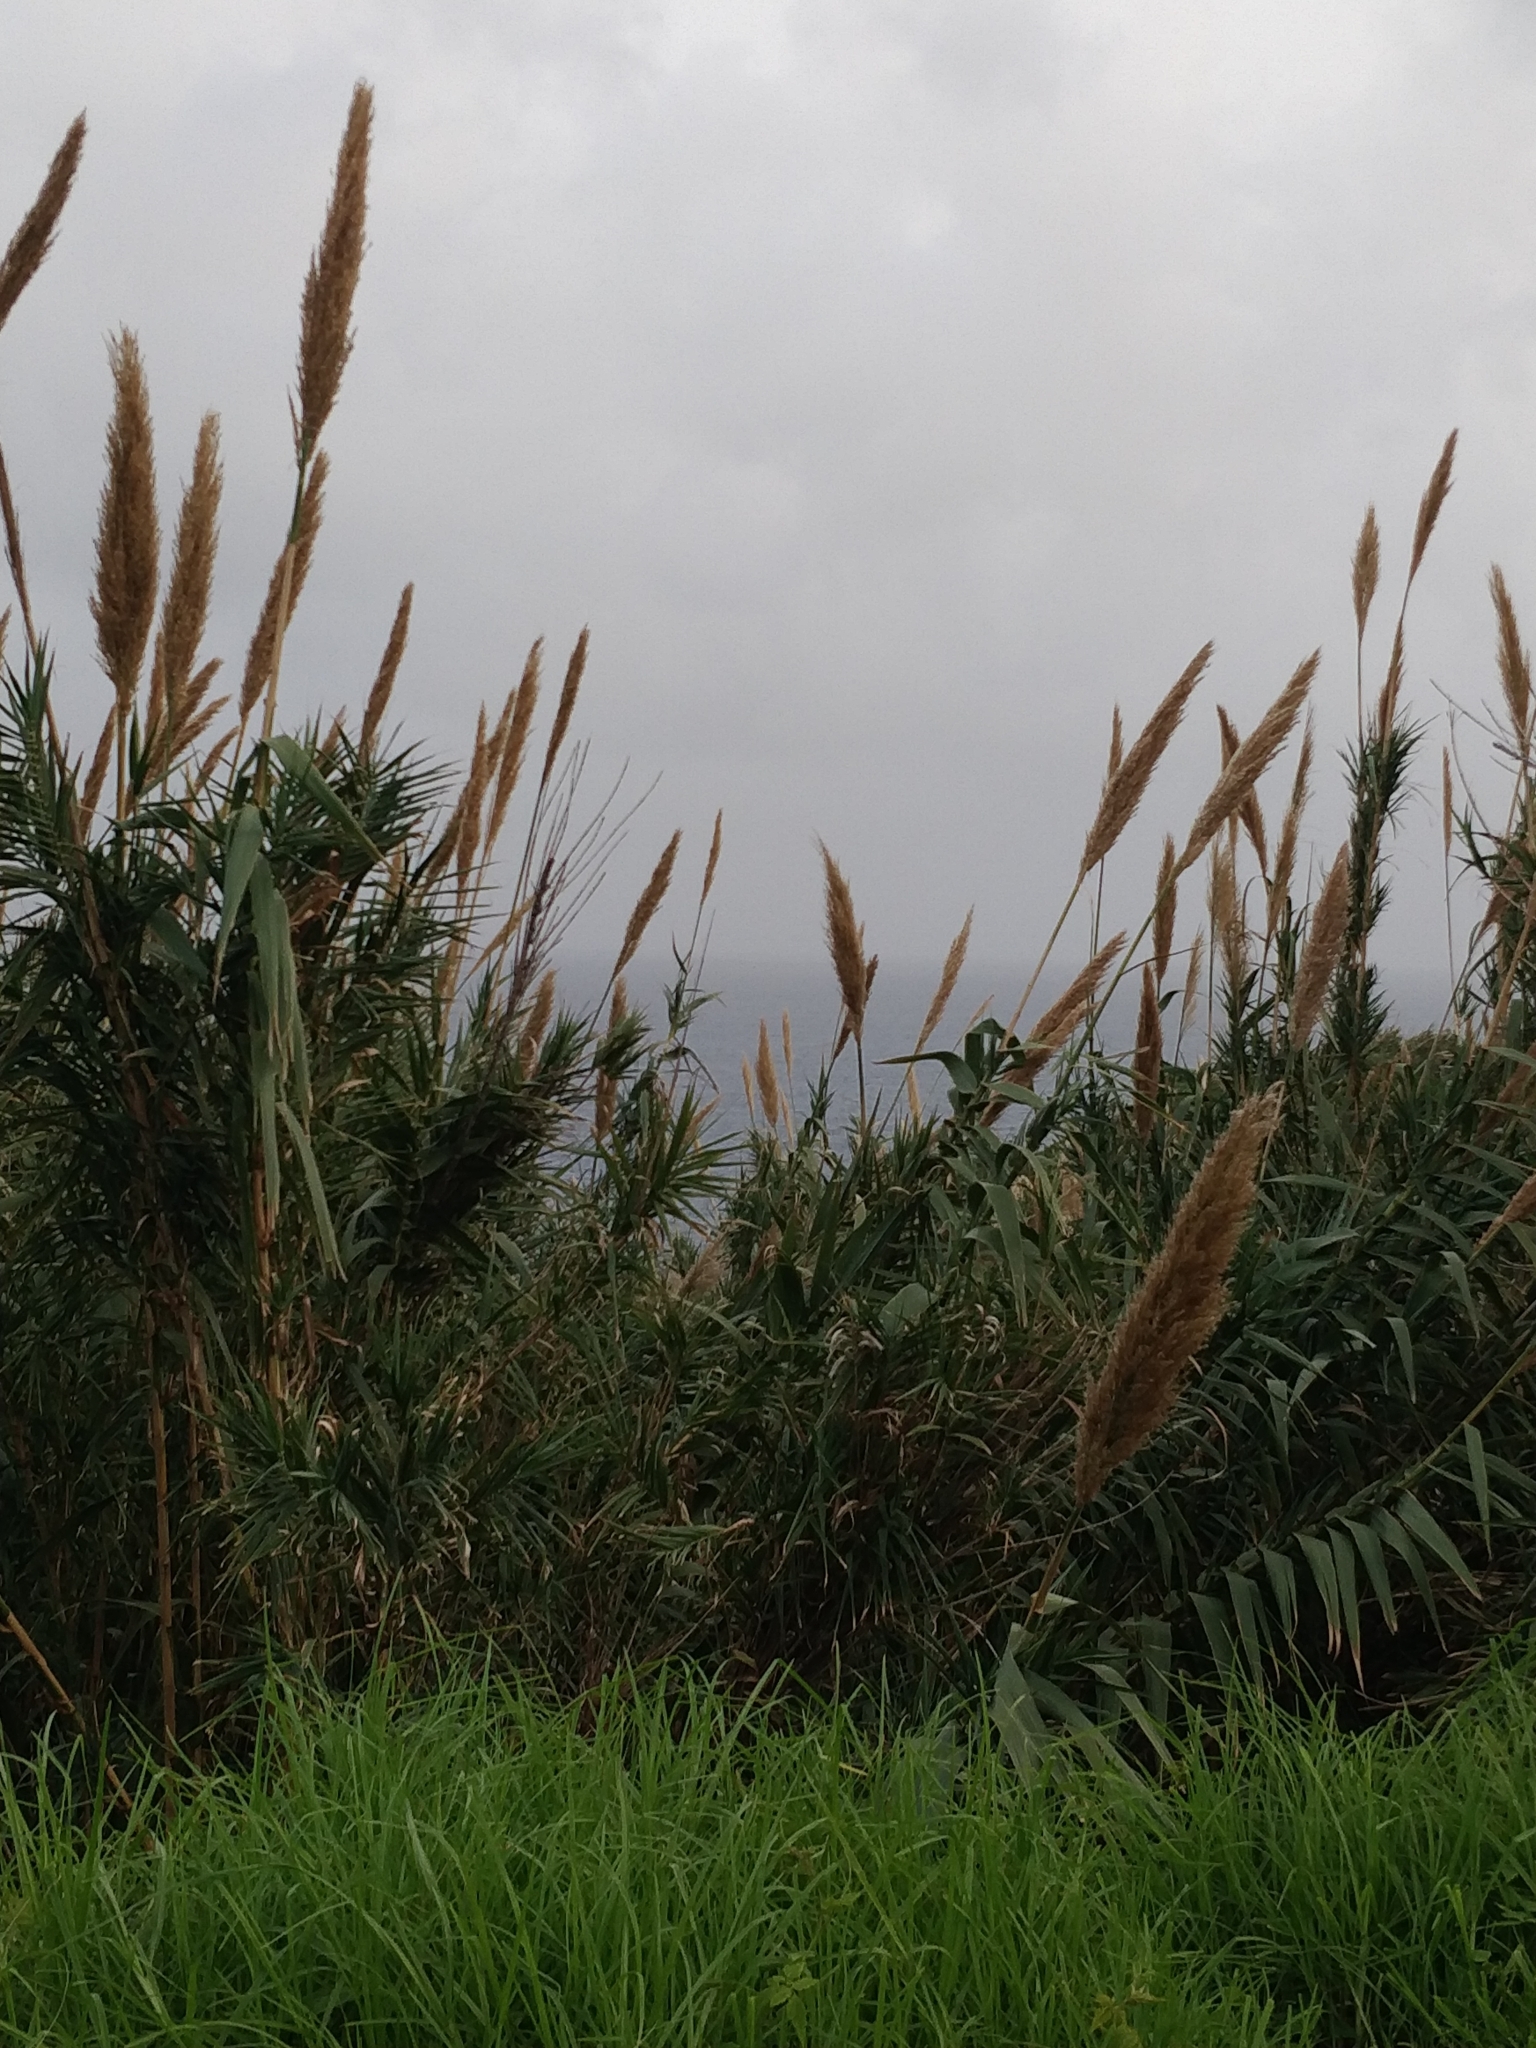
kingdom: Plantae
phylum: Tracheophyta
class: Liliopsida
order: Poales
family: Poaceae
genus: Arundo
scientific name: Arundo donax
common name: Giant reed
